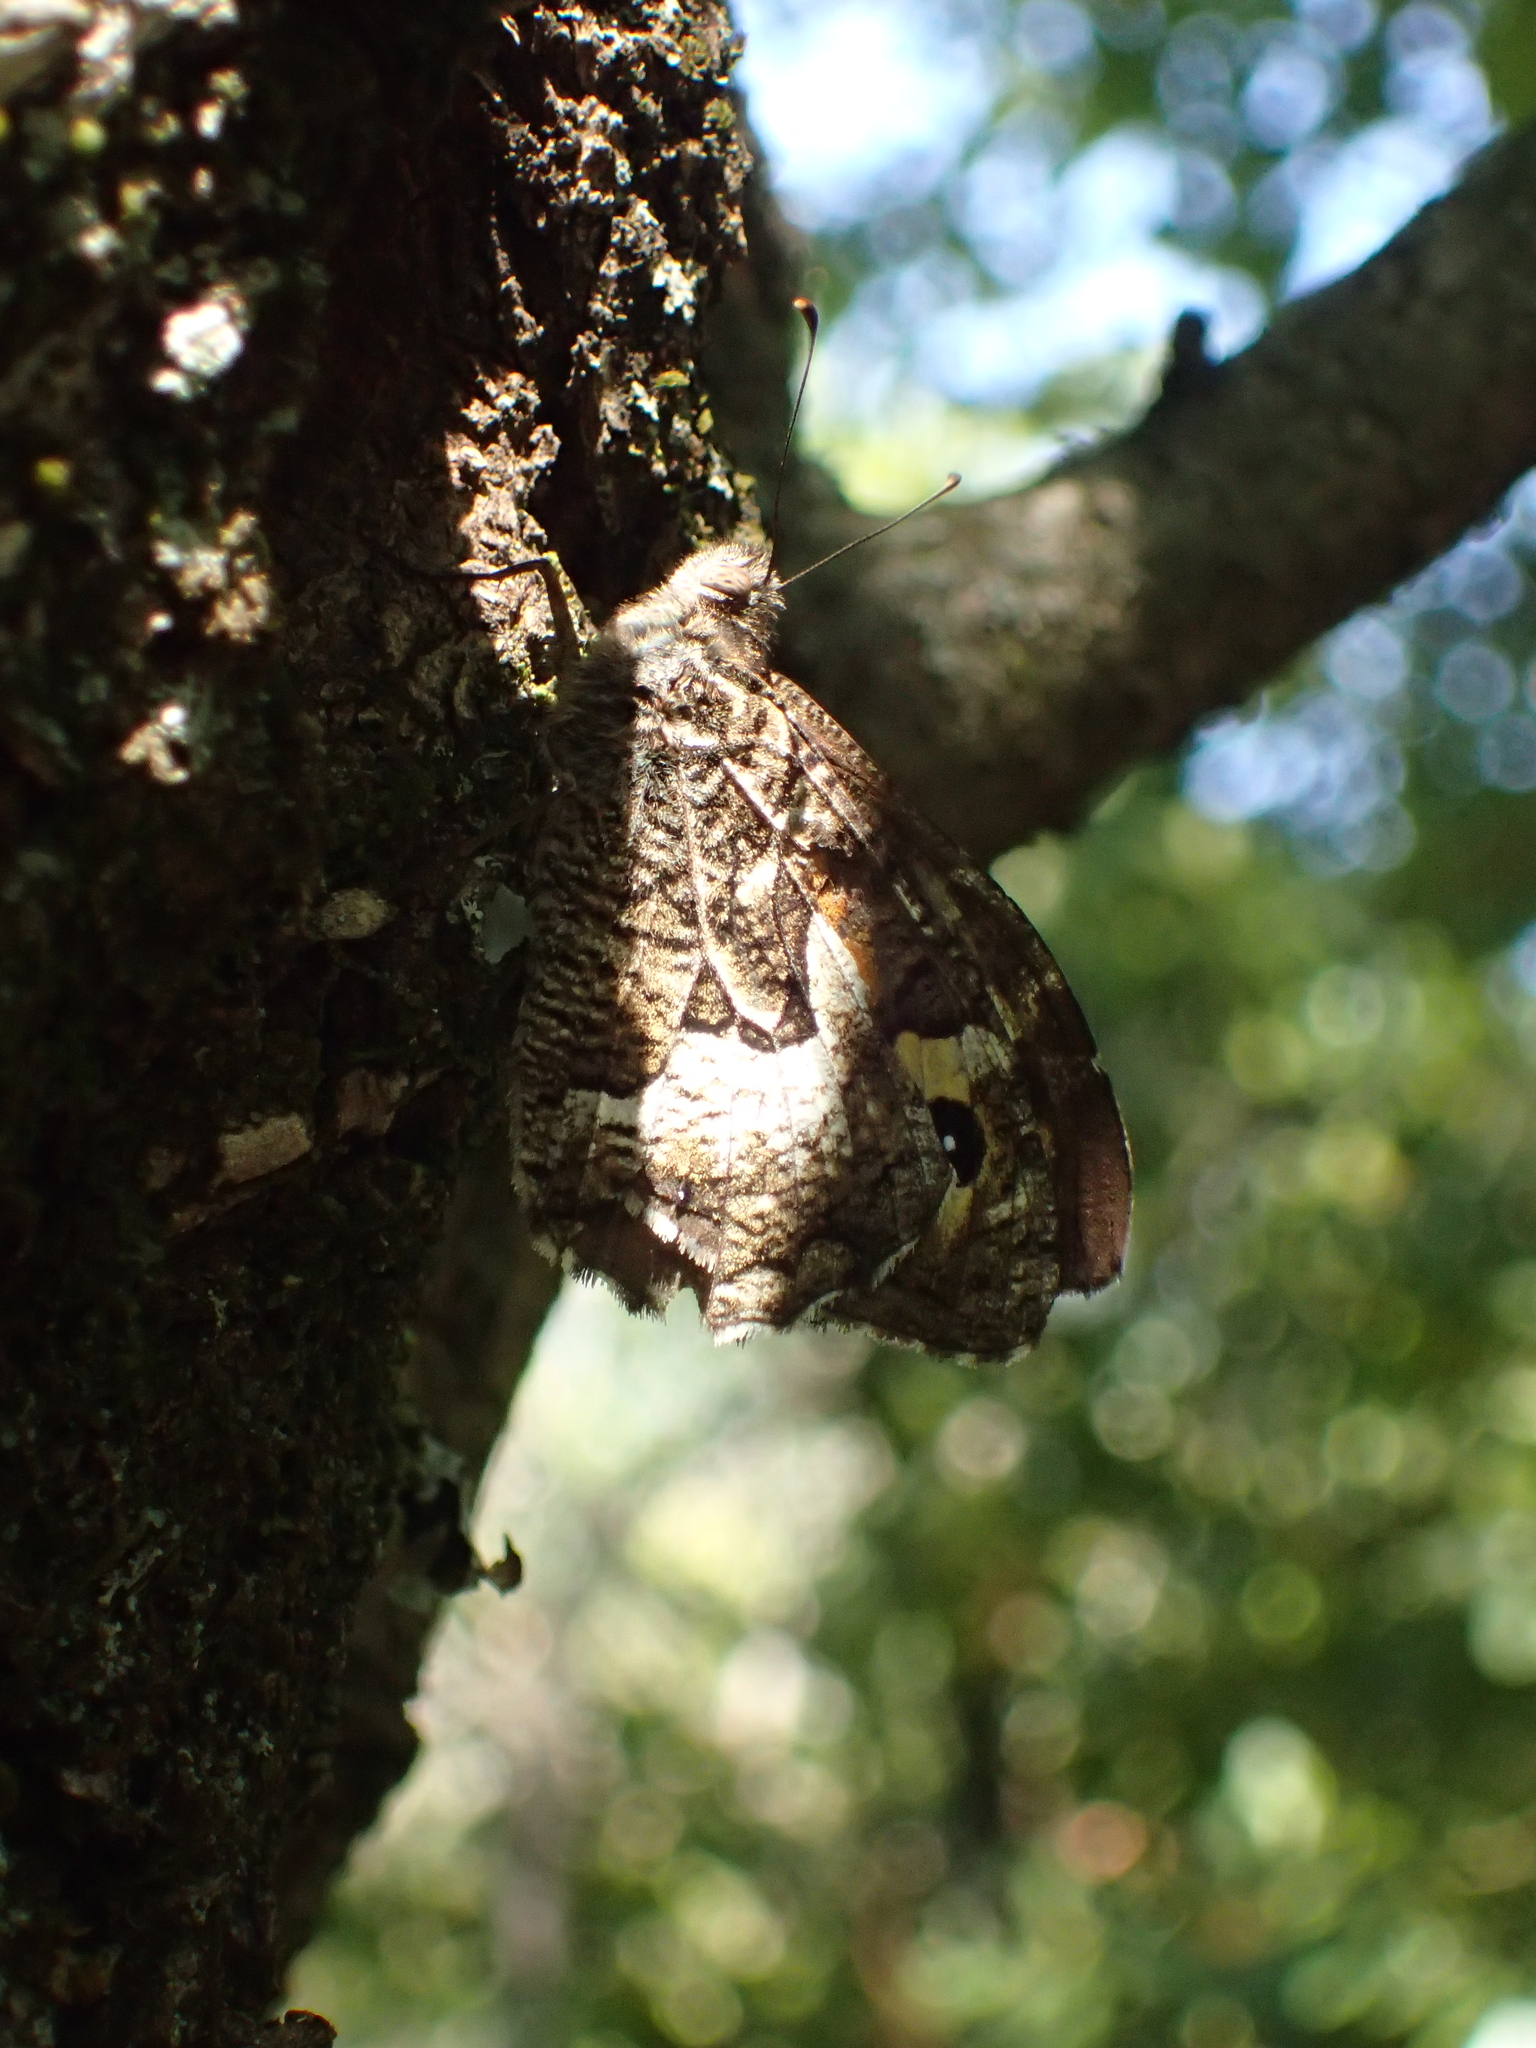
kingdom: Animalia
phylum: Arthropoda
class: Insecta
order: Lepidoptera
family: Nymphalidae
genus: Hipparchia
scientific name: Hipparchia semele
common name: Grayling
